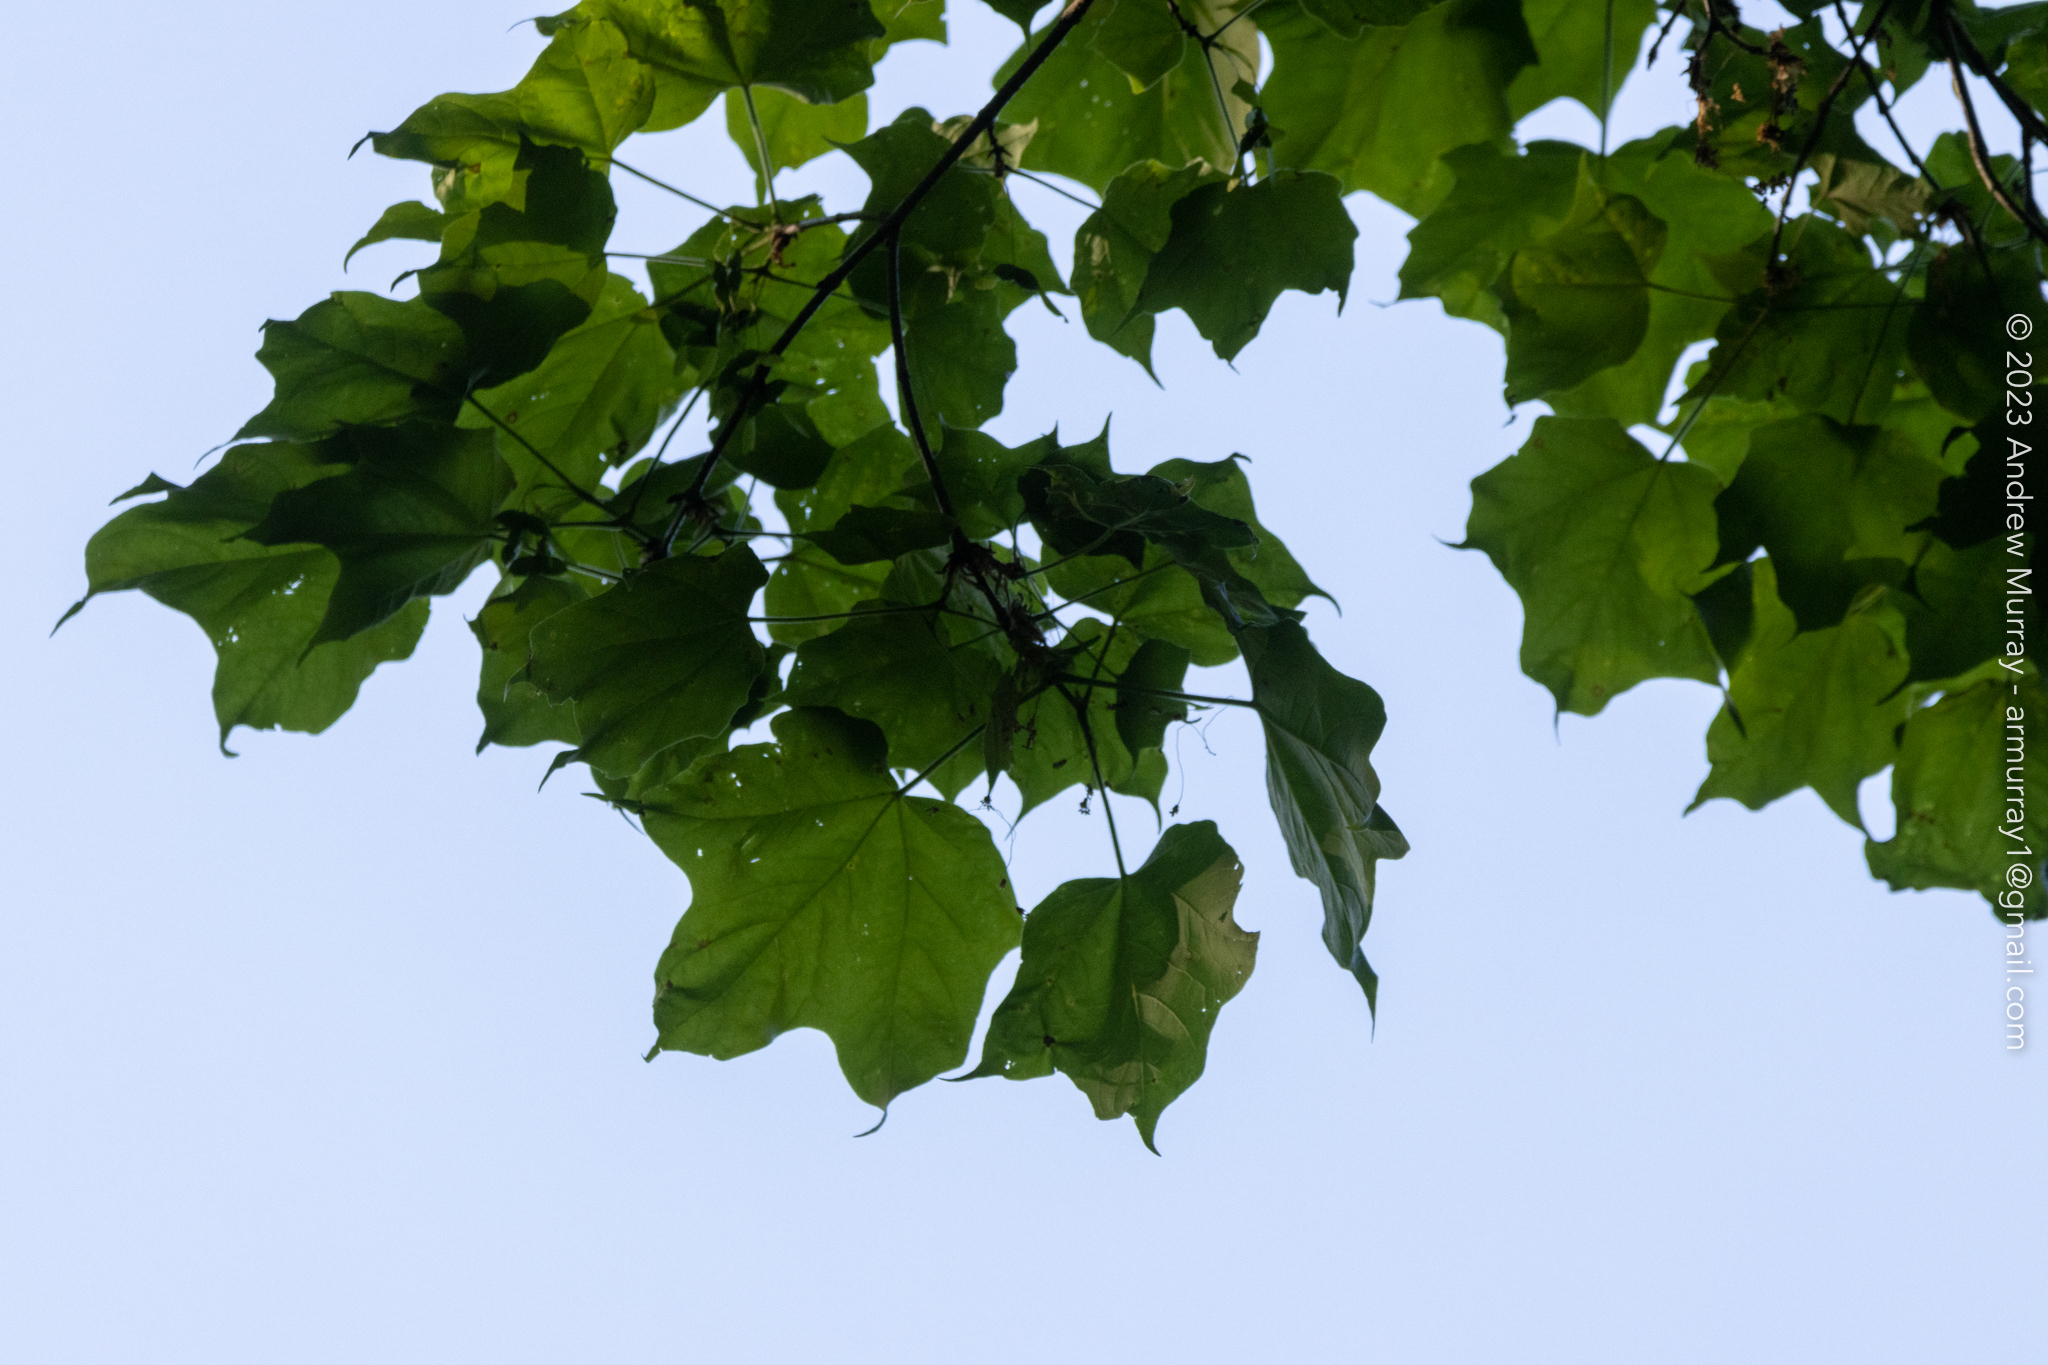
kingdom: Plantae
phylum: Tracheophyta
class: Magnoliopsida
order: Sapindales
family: Sapindaceae
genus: Acer
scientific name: Acer nigrum
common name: Black maple
